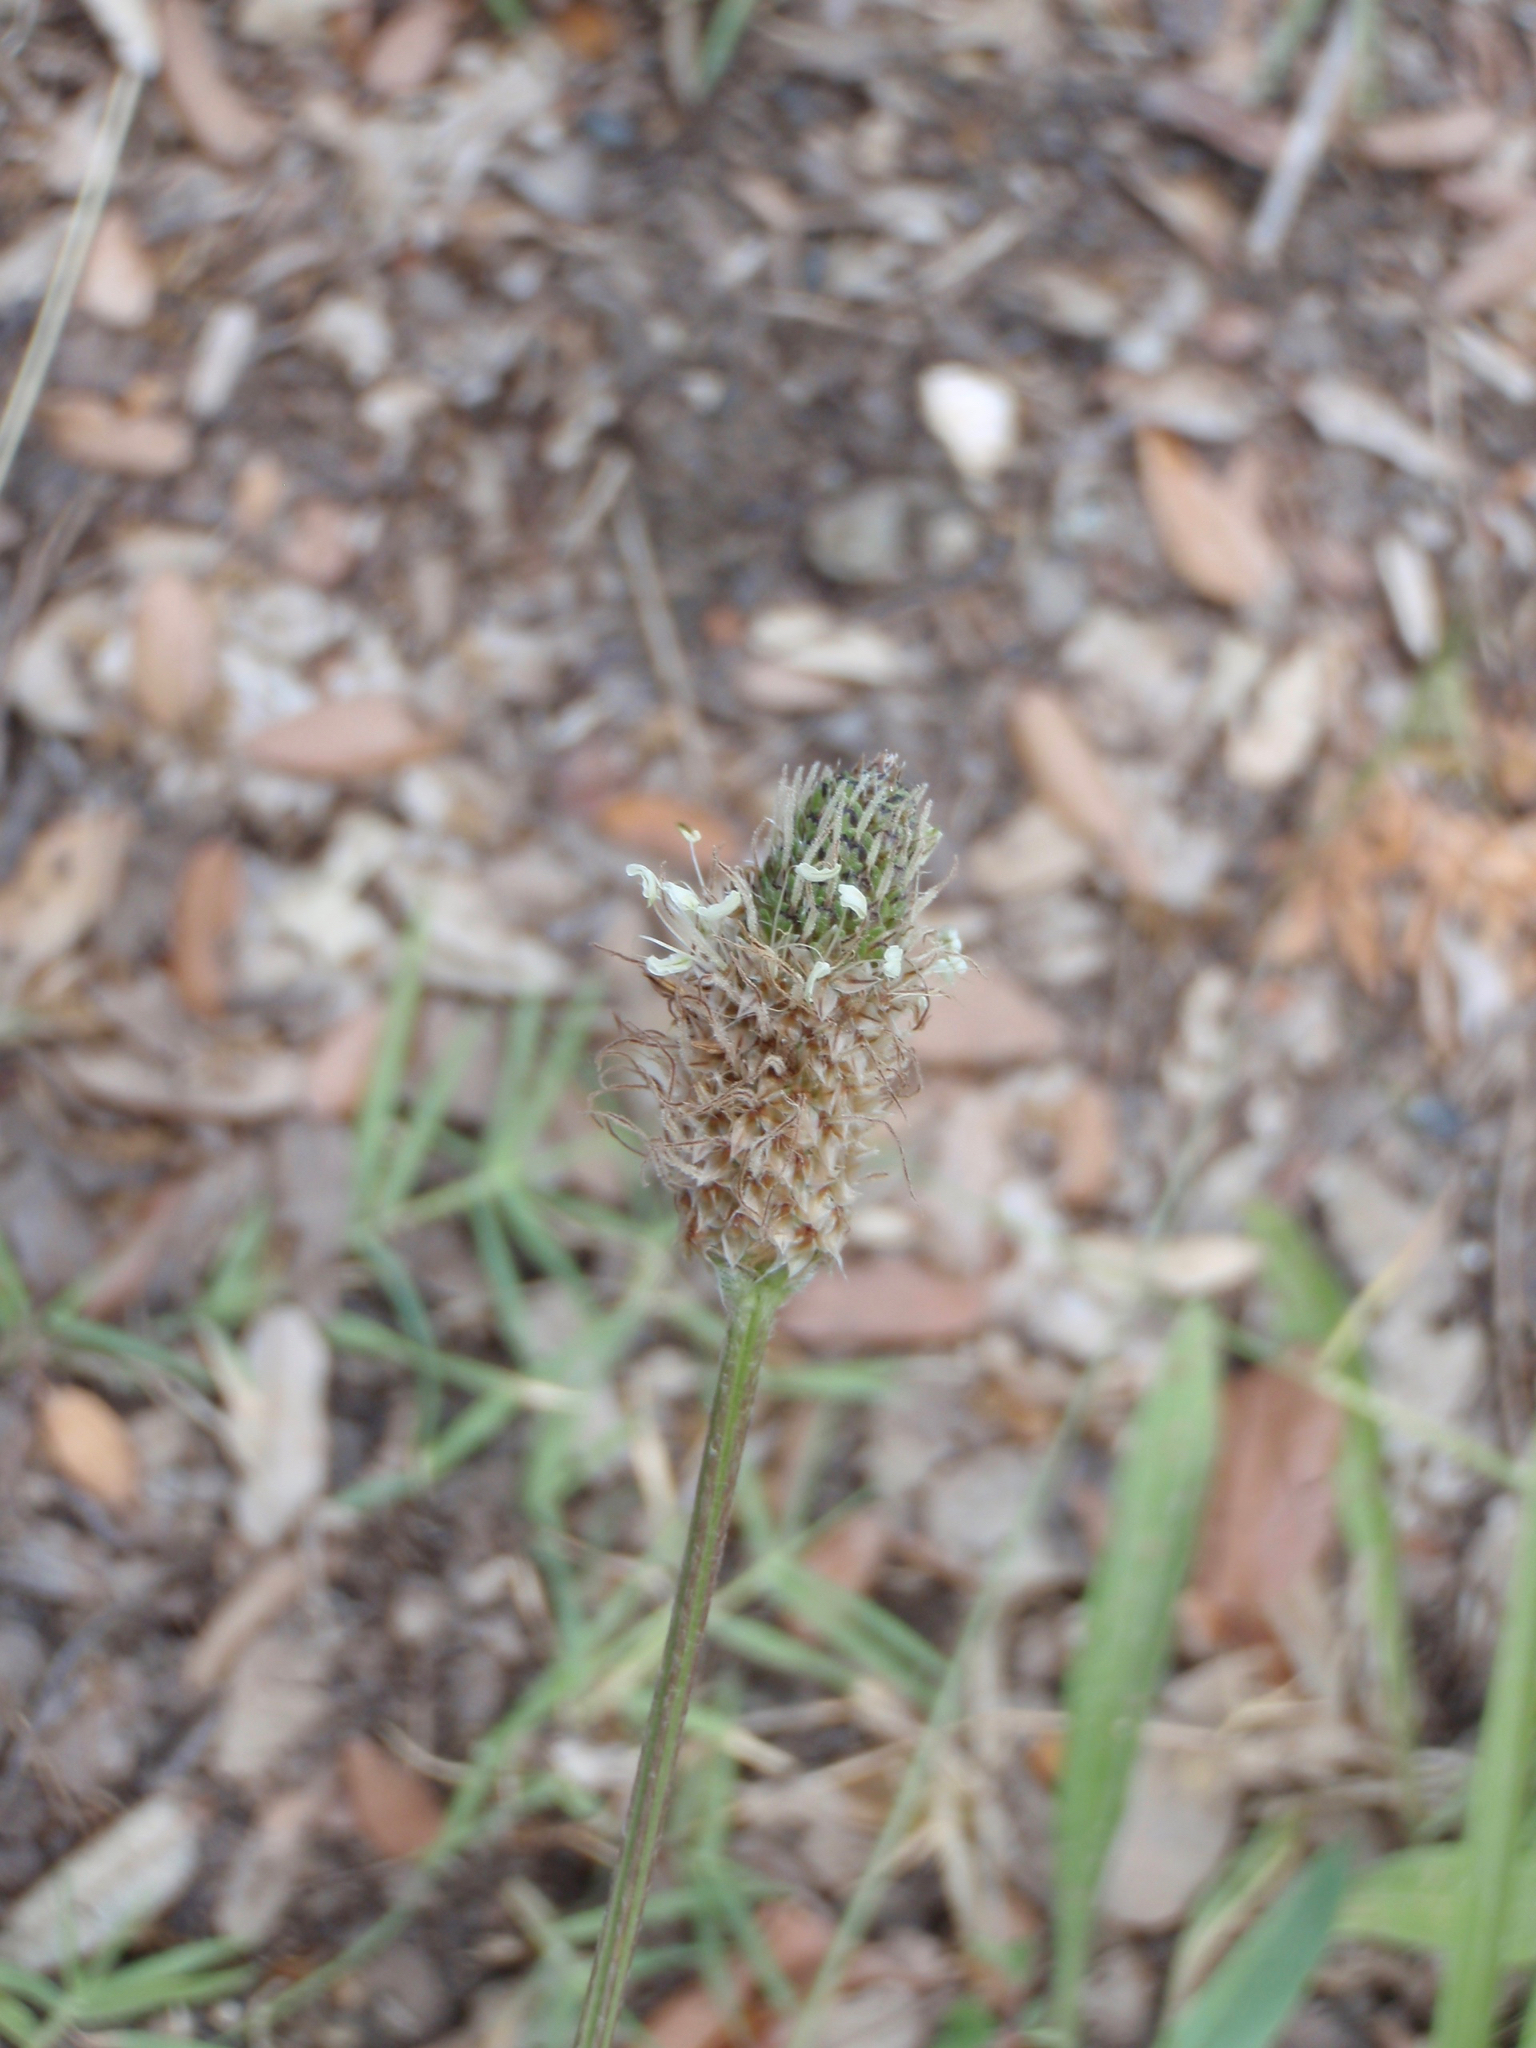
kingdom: Plantae
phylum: Tracheophyta
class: Magnoliopsida
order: Lamiales
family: Plantaginaceae
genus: Plantago
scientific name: Plantago lanceolata
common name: Ribwort plantain
